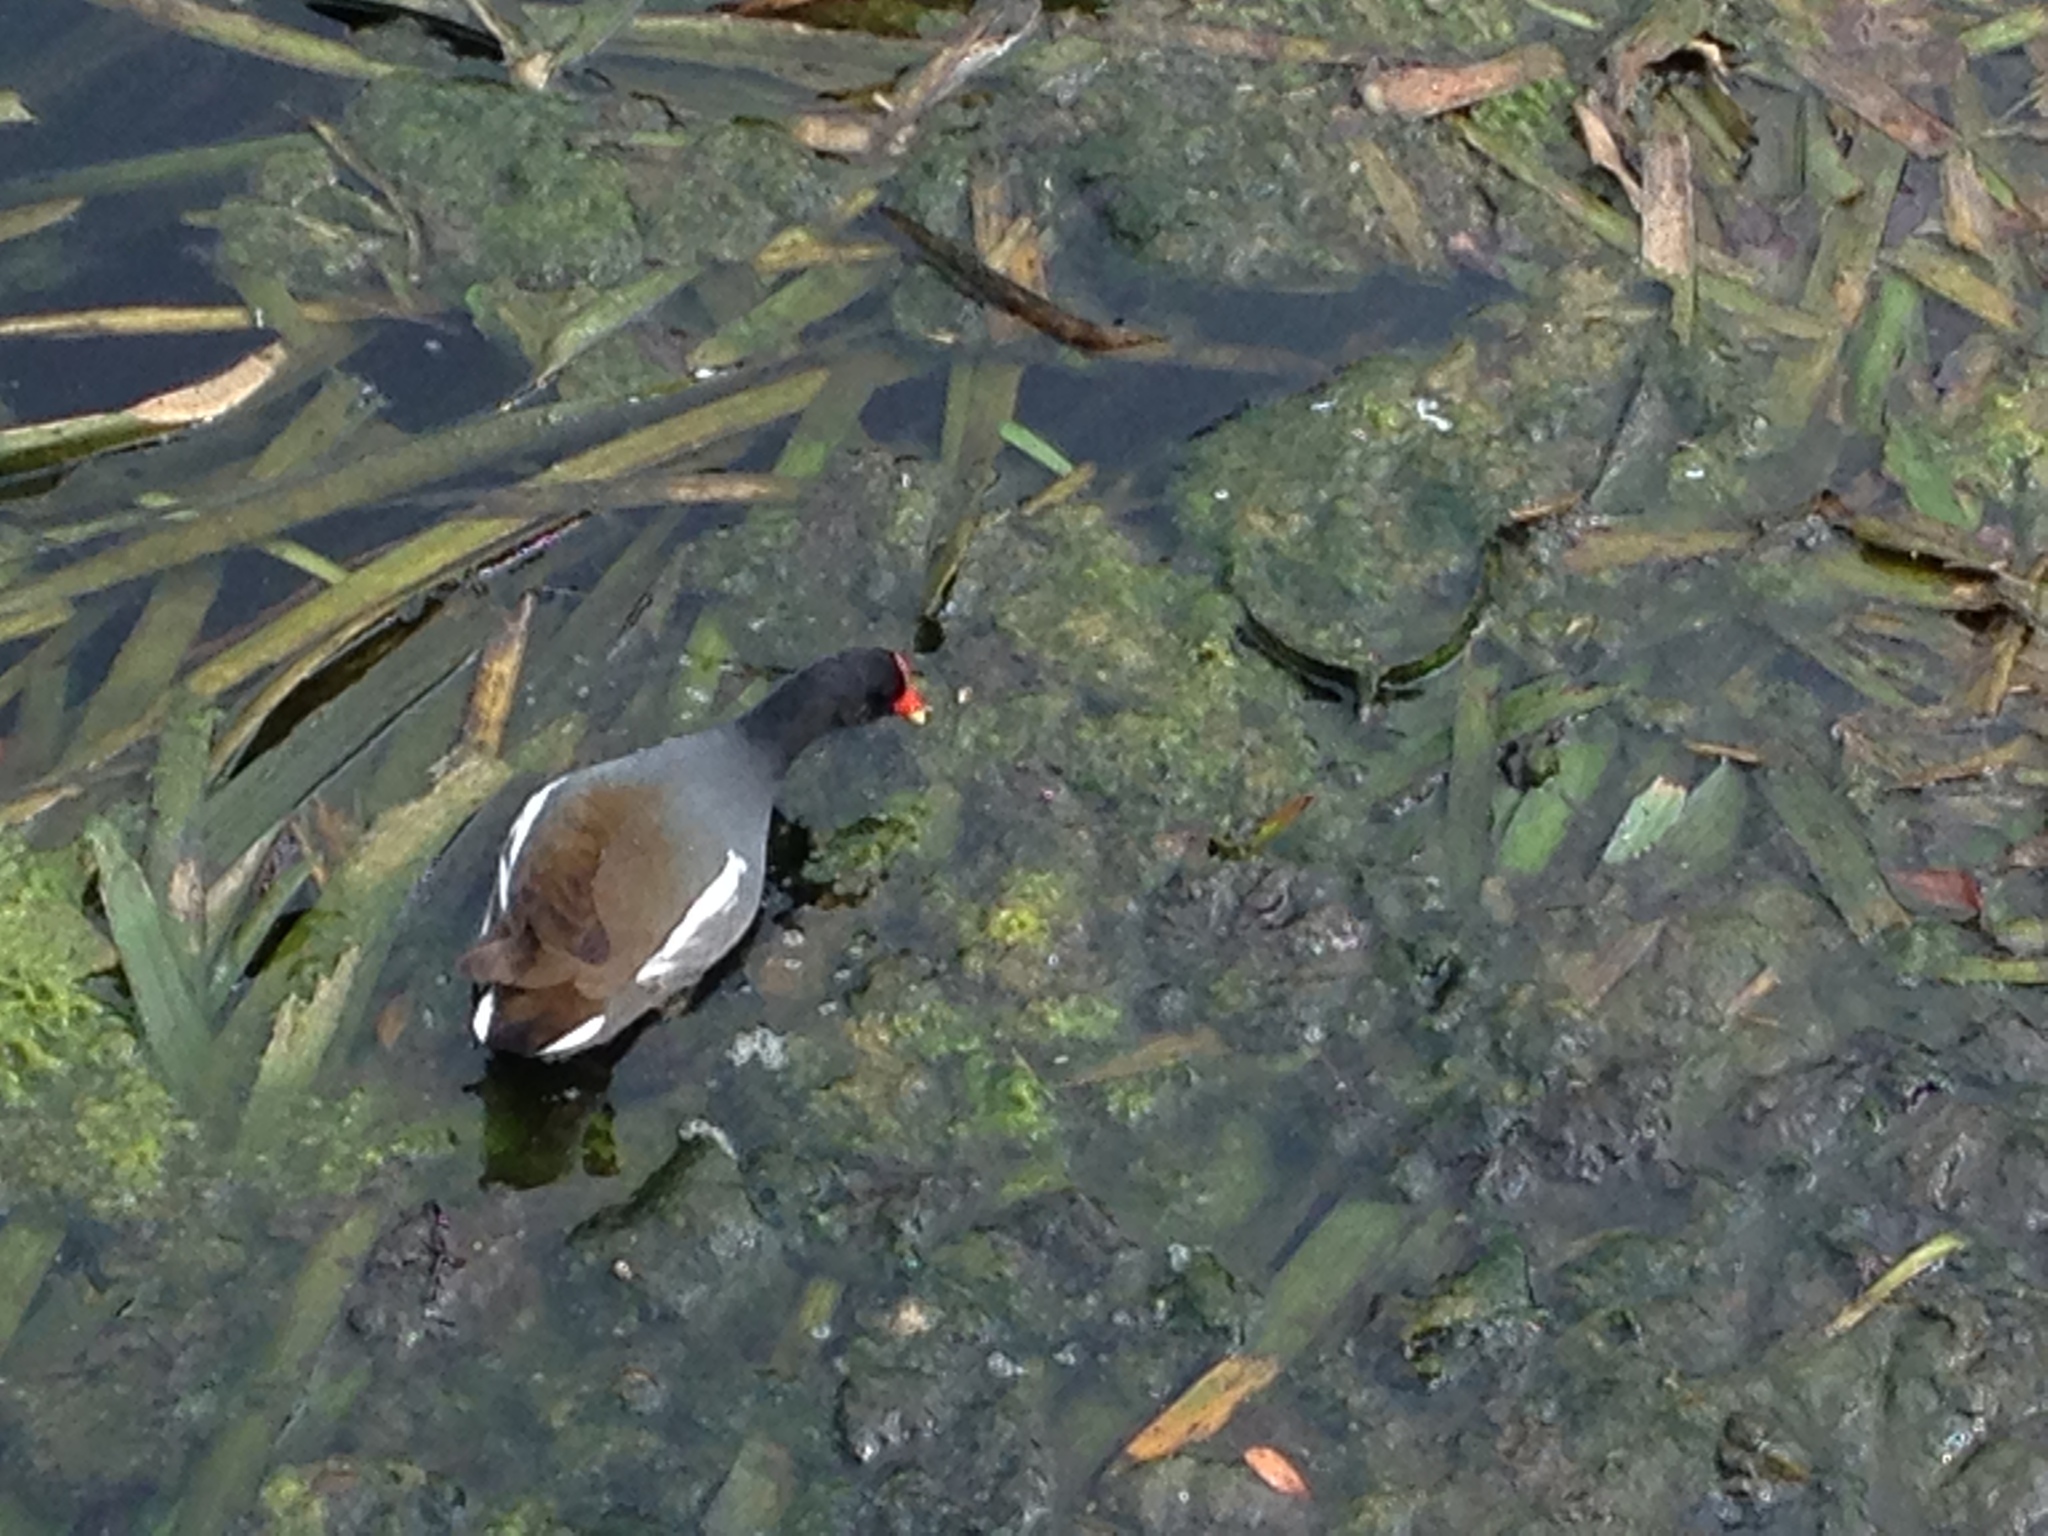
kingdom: Animalia
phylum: Chordata
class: Aves
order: Gruiformes
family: Rallidae
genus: Gallinula
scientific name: Gallinula chloropus
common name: Common moorhen
